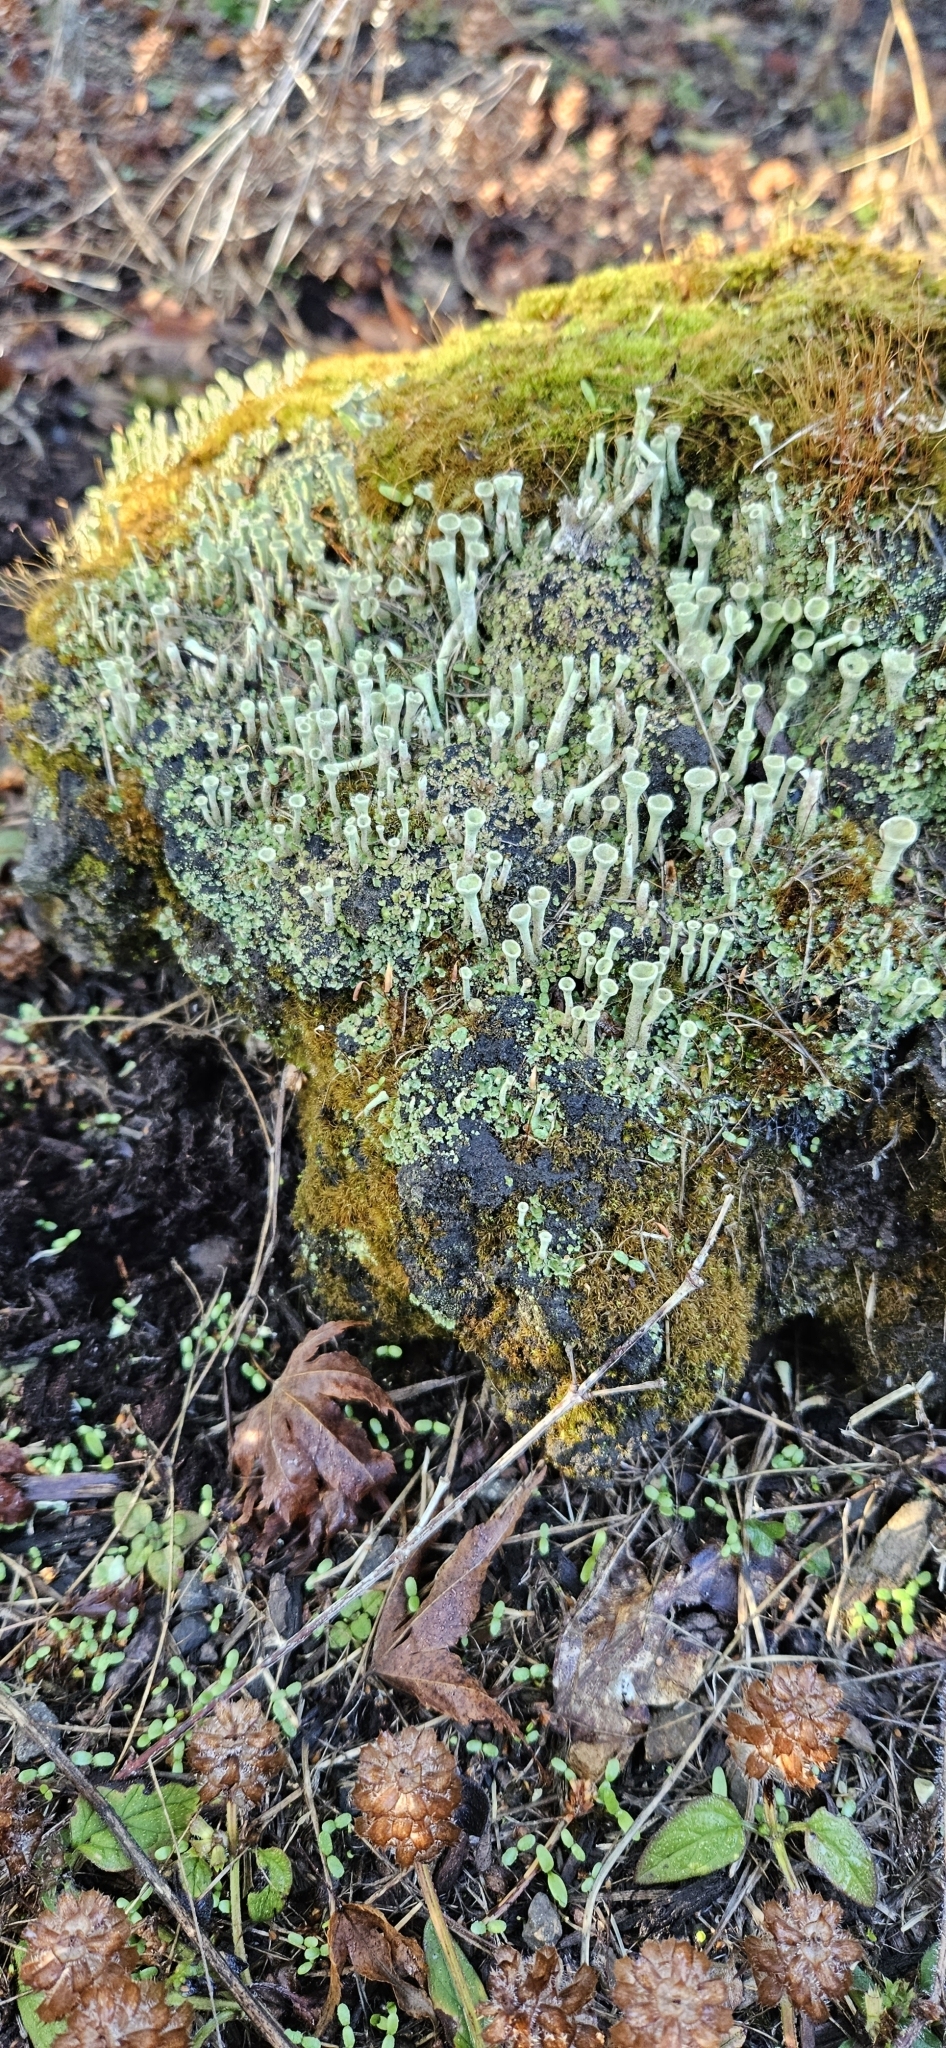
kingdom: Fungi
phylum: Ascomycota
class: Lecanoromycetes
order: Lecanorales
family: Cladoniaceae
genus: Cladonia
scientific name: Cladonia fimbriata
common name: Powdered trumpet lichen
